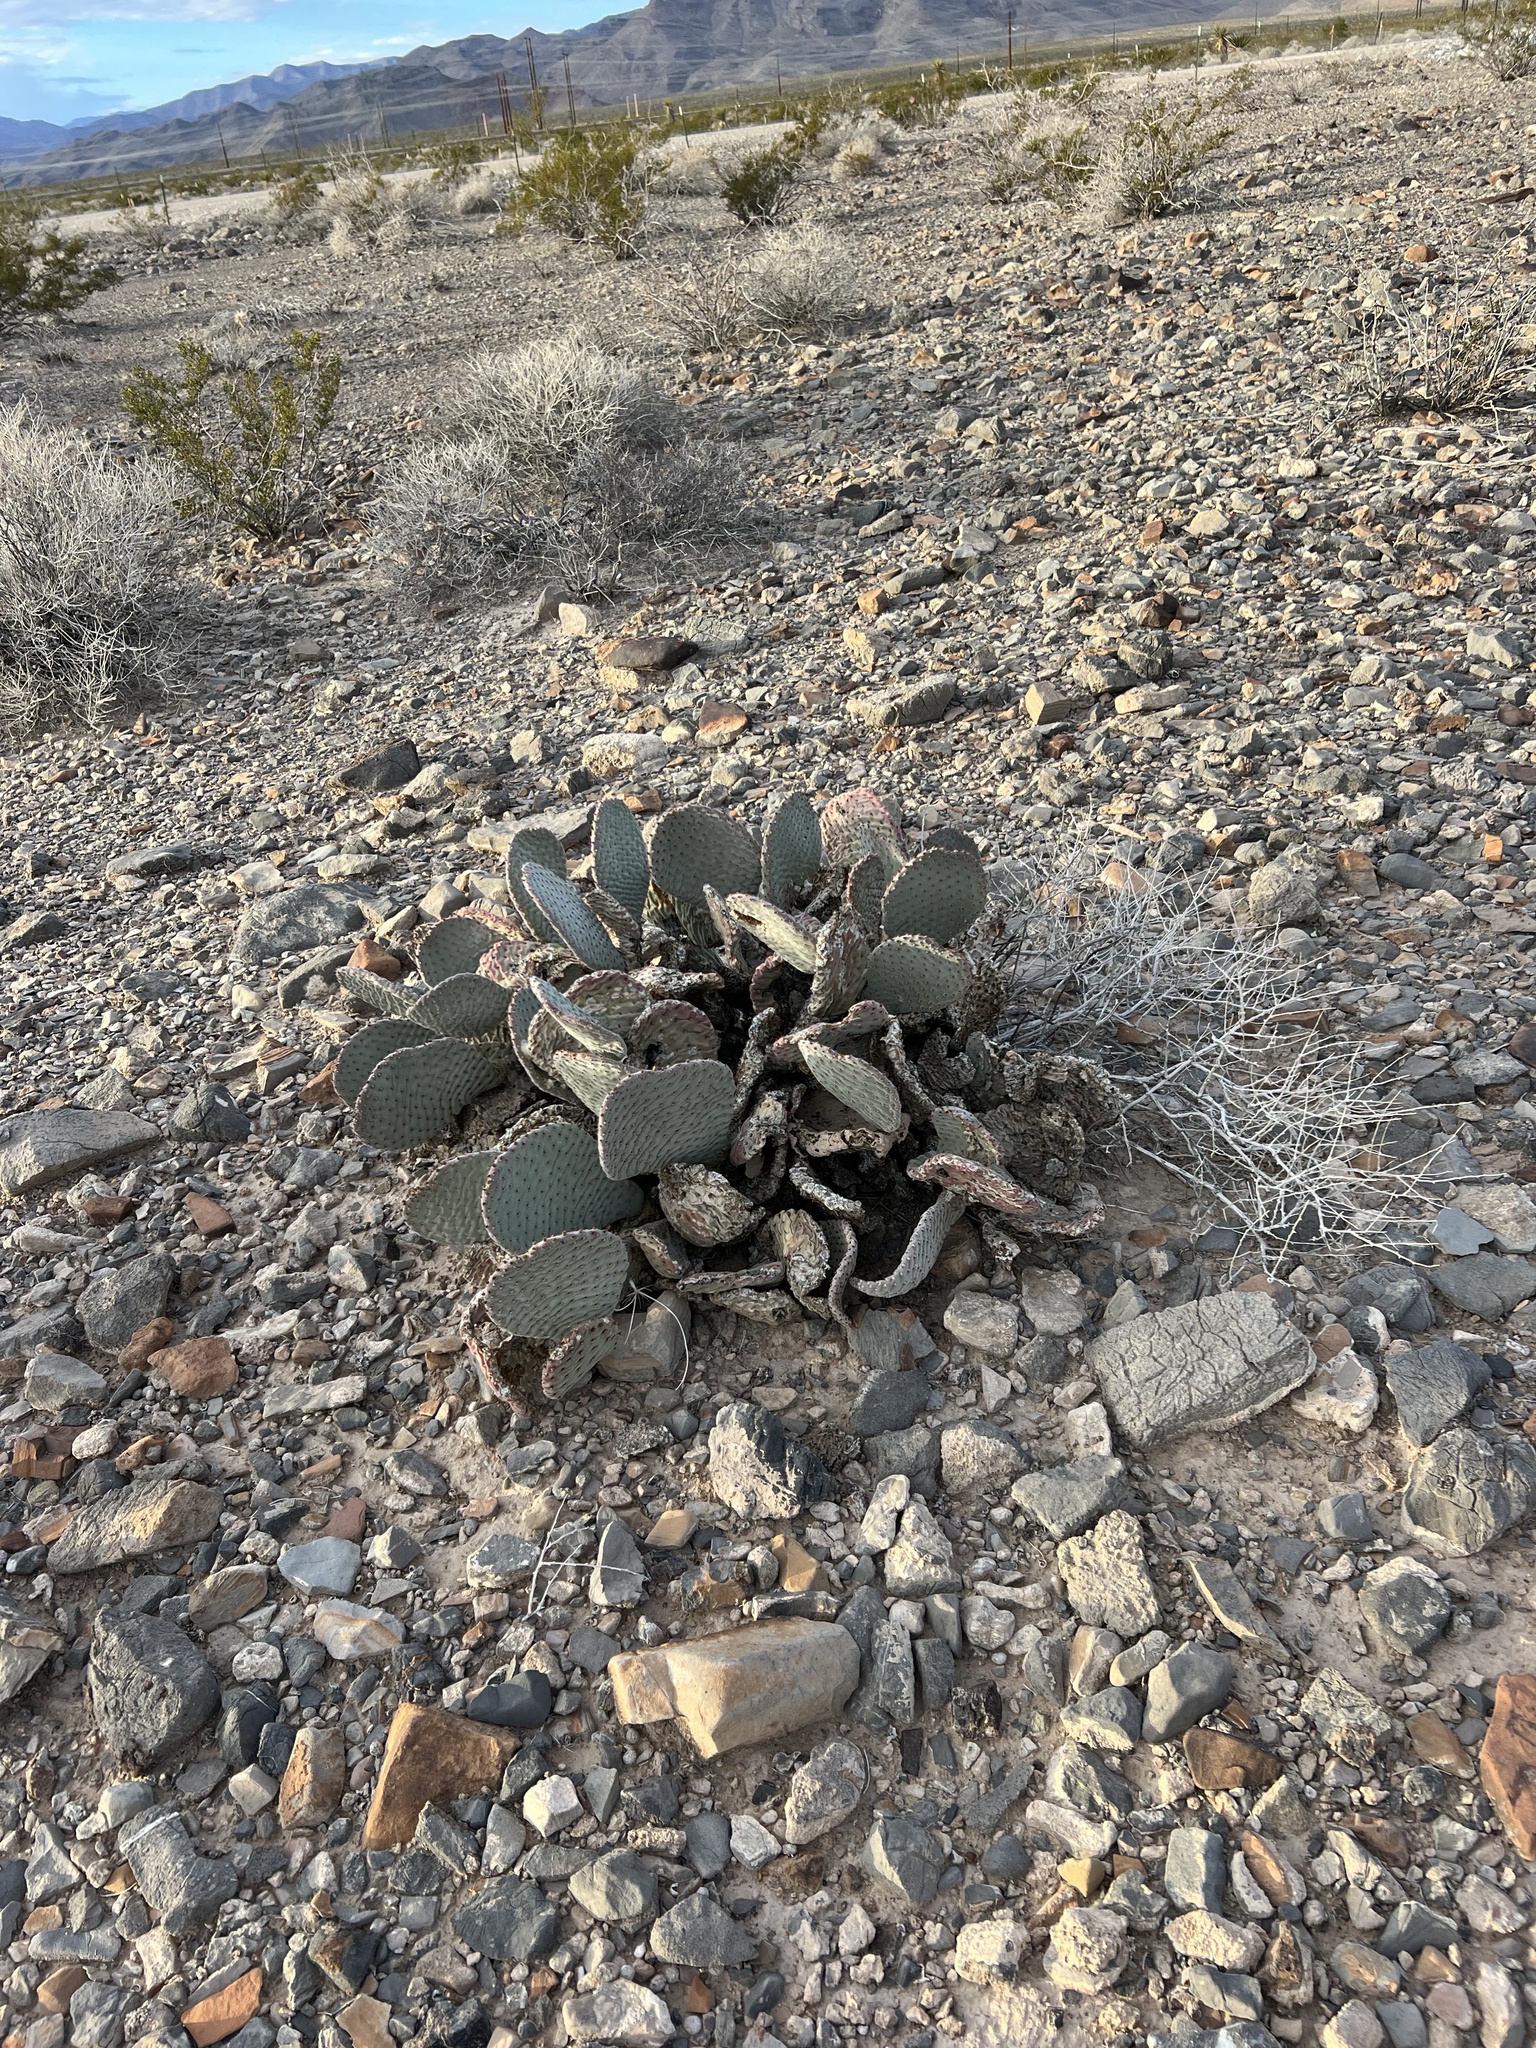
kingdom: Plantae
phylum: Tracheophyta
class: Magnoliopsida
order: Caryophyllales
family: Cactaceae
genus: Opuntia
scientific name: Opuntia basilaris
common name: Beavertail prickly-pear
